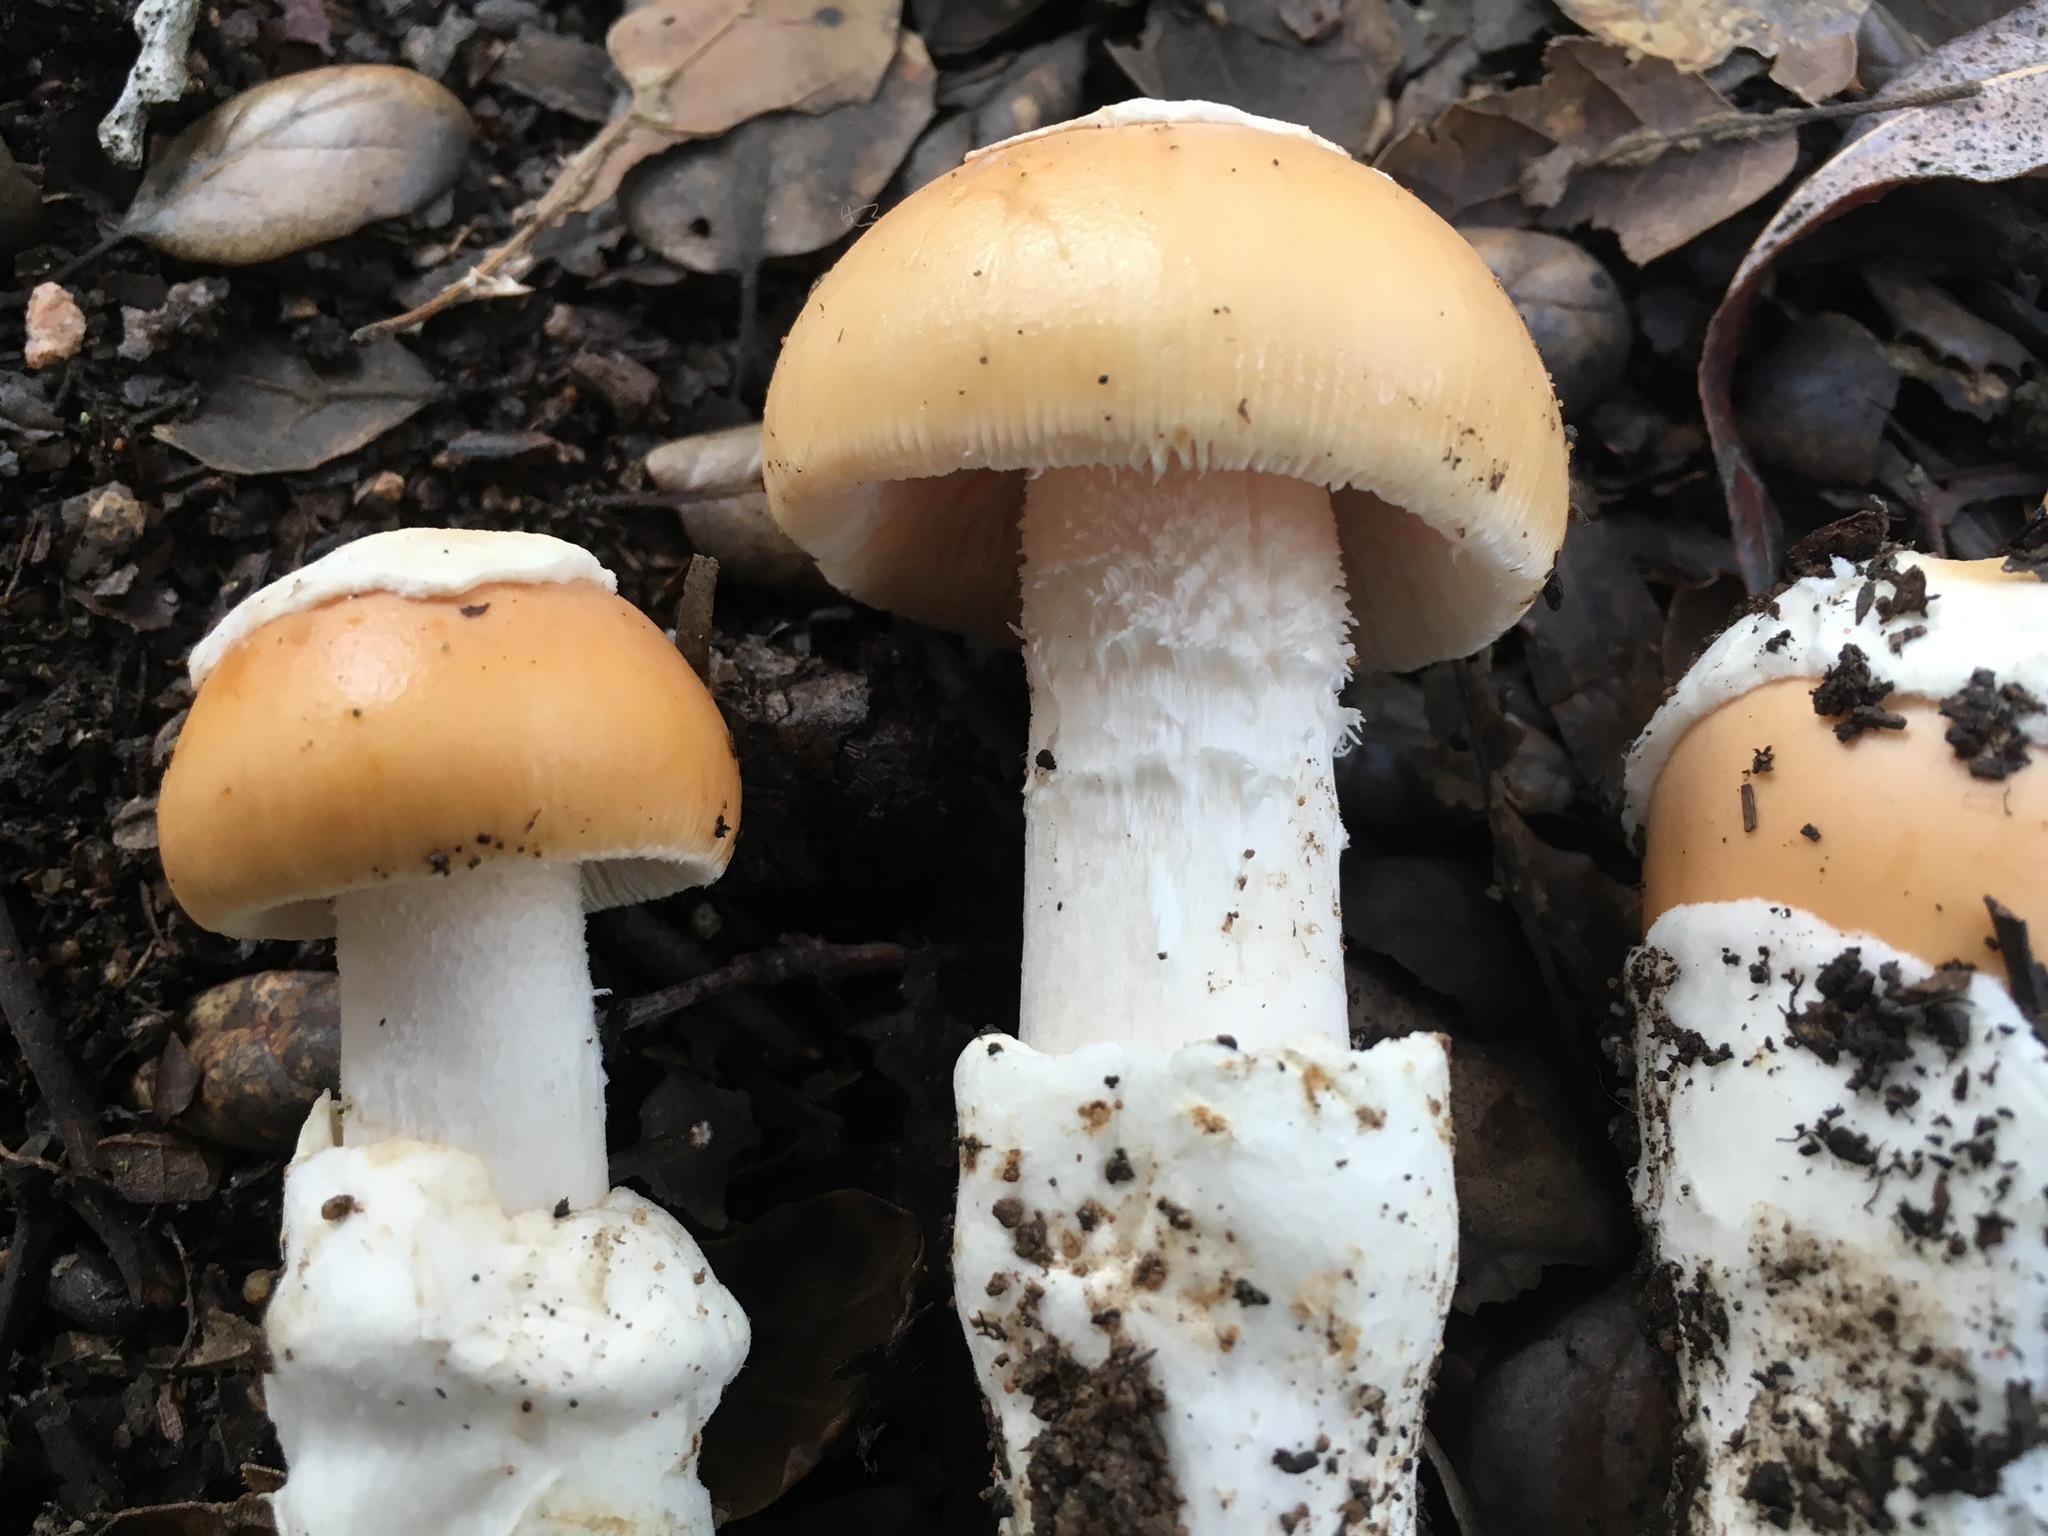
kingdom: Fungi
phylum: Basidiomycota
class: Agaricomycetes
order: Agaricales
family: Amanitaceae
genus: Amanita
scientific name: Amanita velosa
